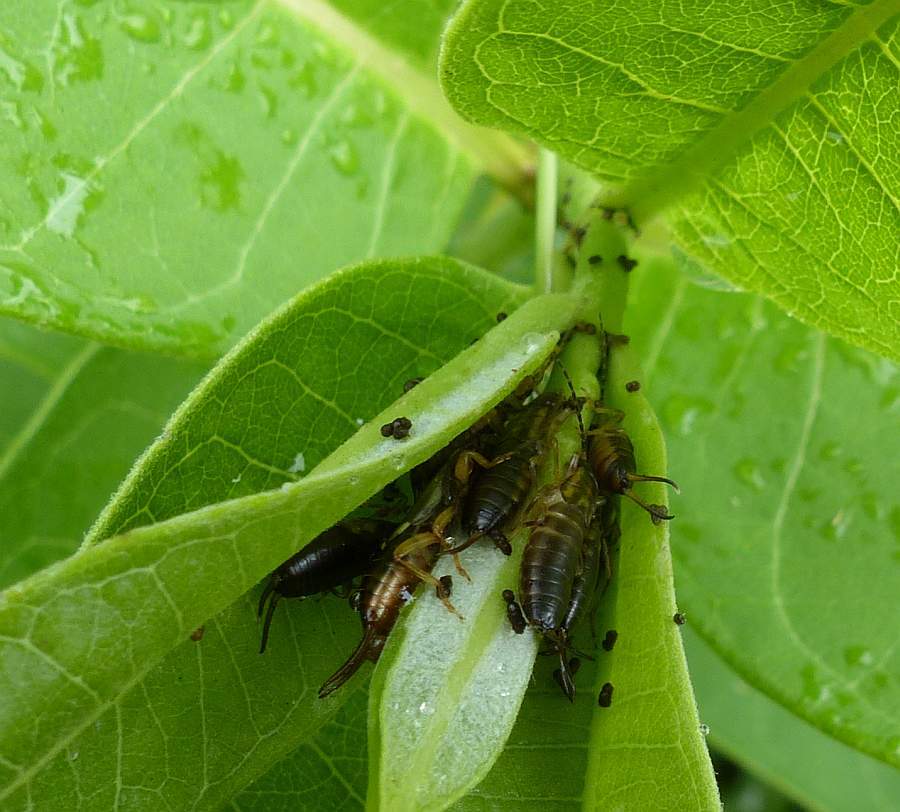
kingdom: Animalia
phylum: Arthropoda
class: Insecta
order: Dermaptera
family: Forficulidae
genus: Forficula
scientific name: Forficula
